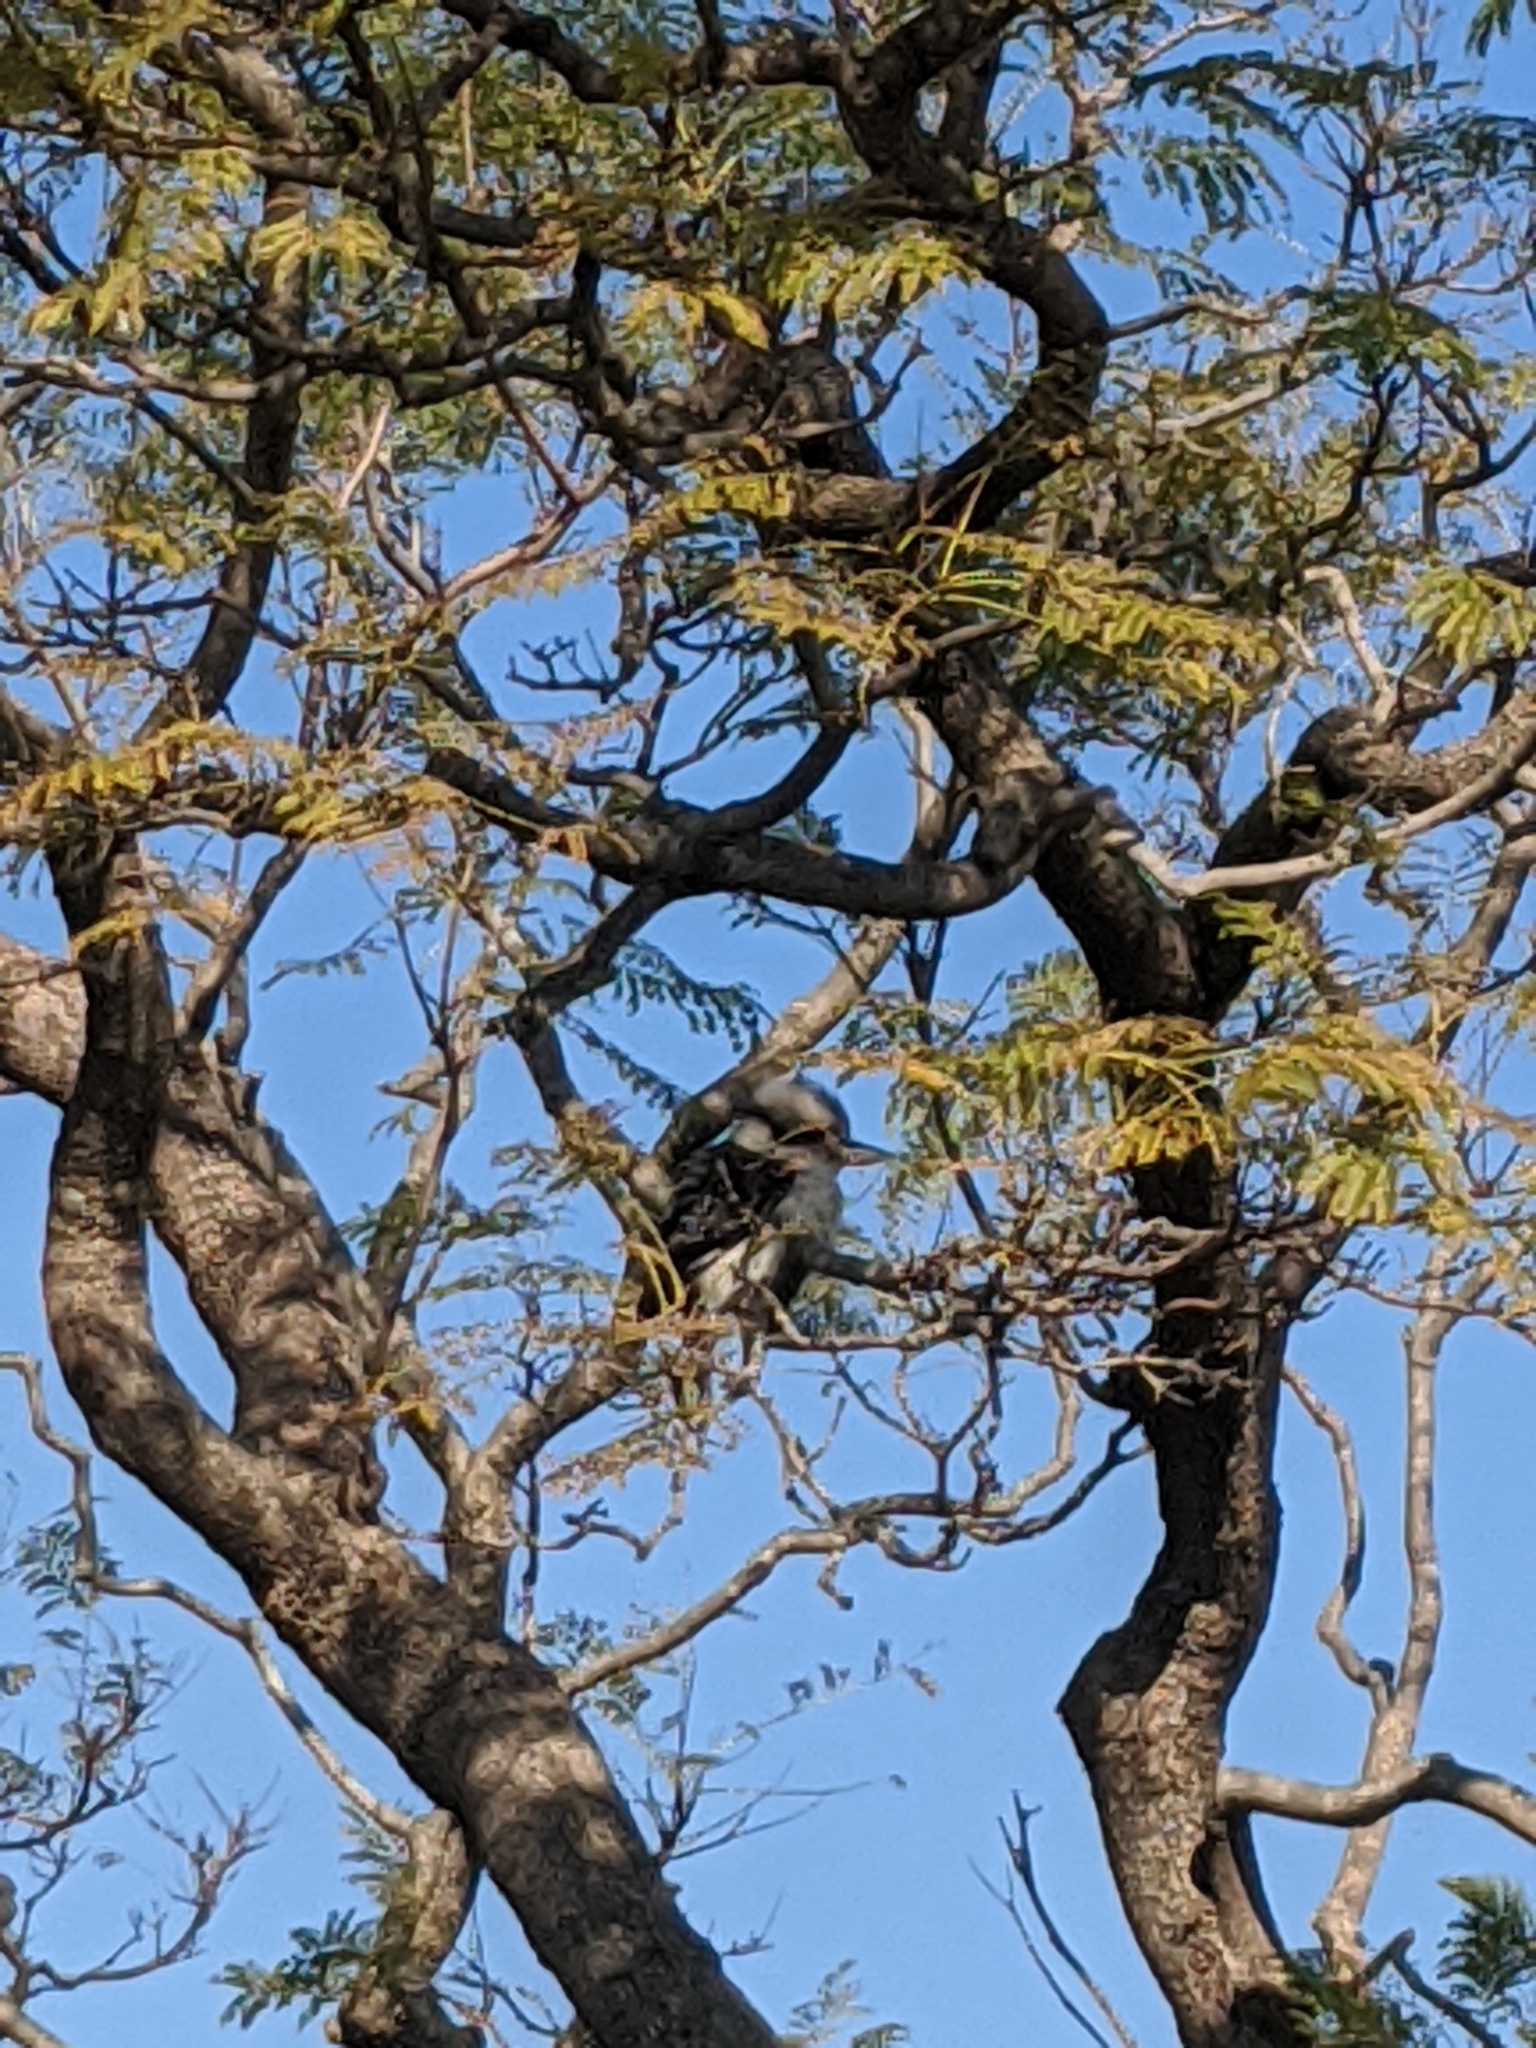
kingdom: Animalia
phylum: Chordata
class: Aves
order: Coraciiformes
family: Alcedinidae
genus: Dacelo
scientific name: Dacelo novaeguineae
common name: Laughing kookaburra
